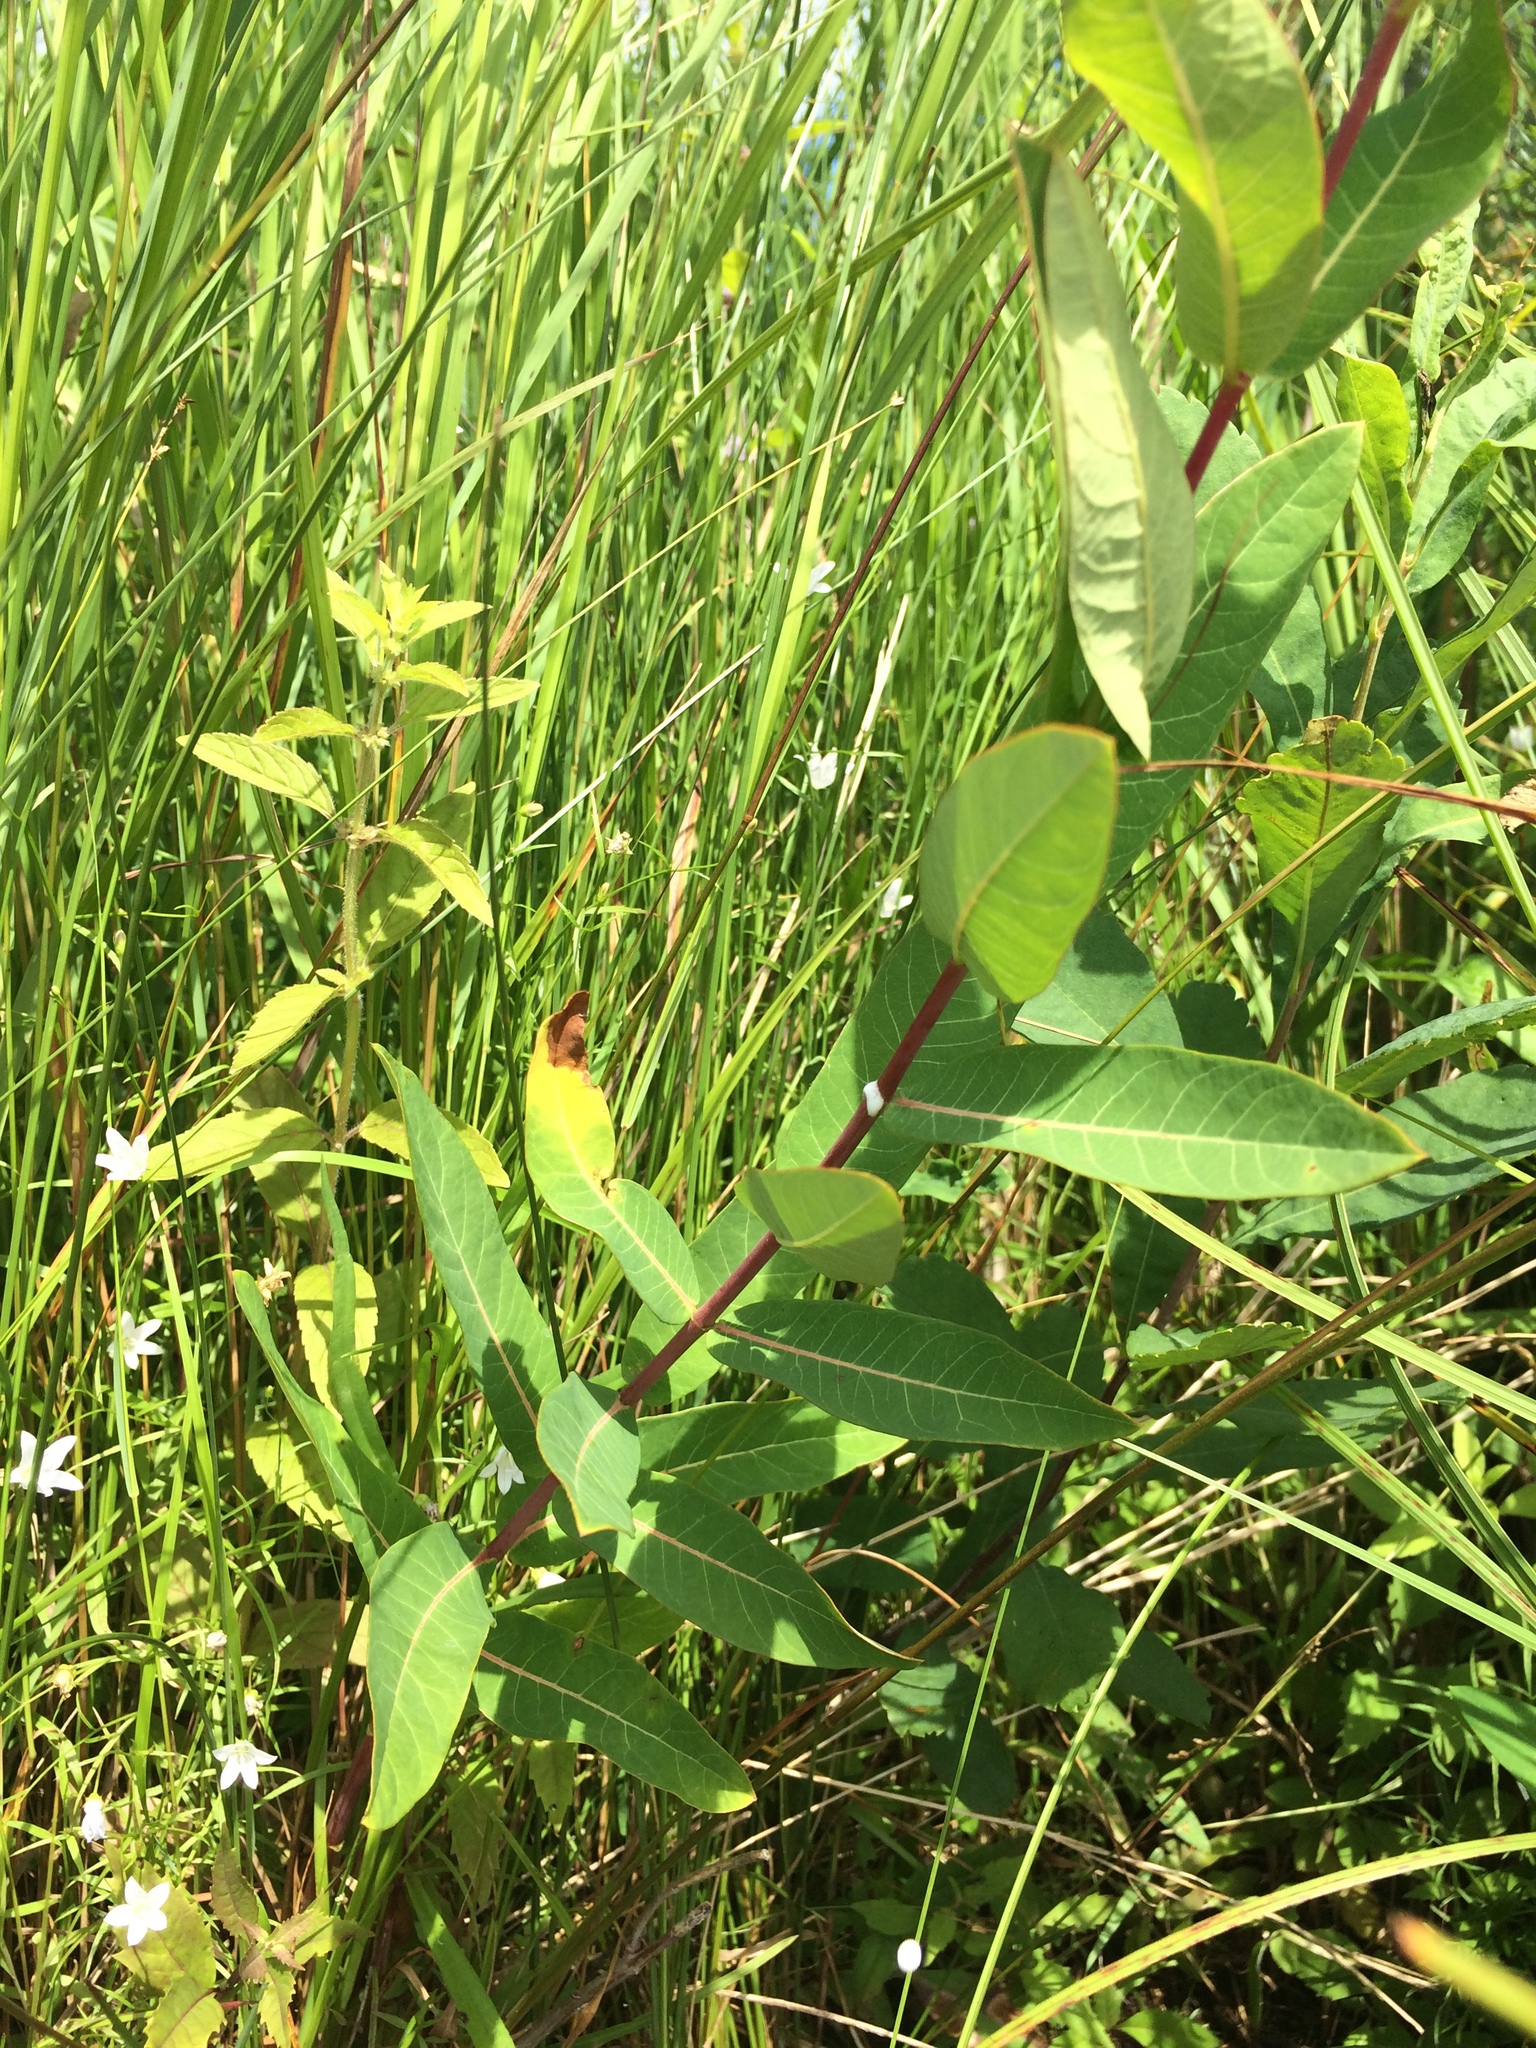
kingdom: Plantae
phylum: Tracheophyta
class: Magnoliopsida
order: Gentianales
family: Apocynaceae
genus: Apocynum
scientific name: Apocynum cannabinum
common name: Hemp dogbane
